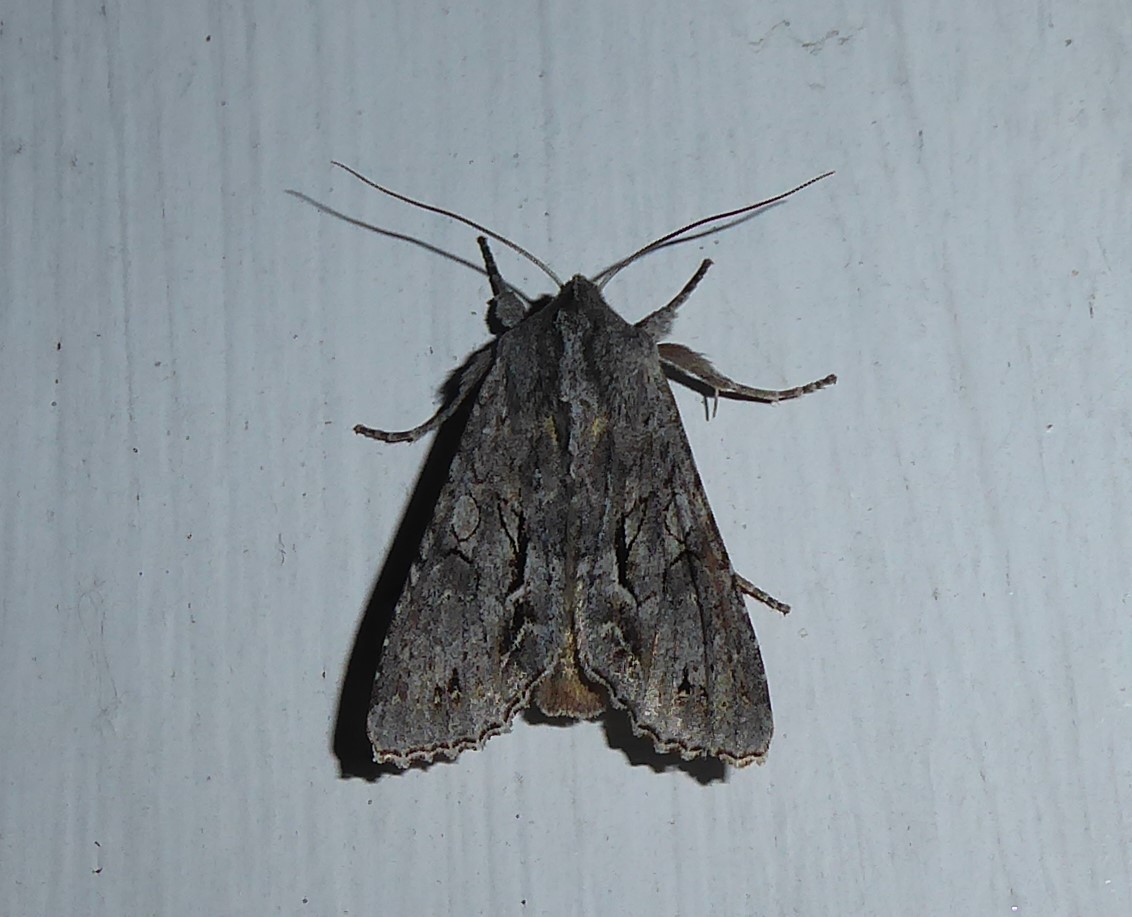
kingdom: Animalia
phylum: Arthropoda
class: Insecta
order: Lepidoptera
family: Noctuidae
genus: Ichneutica
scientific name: Ichneutica
